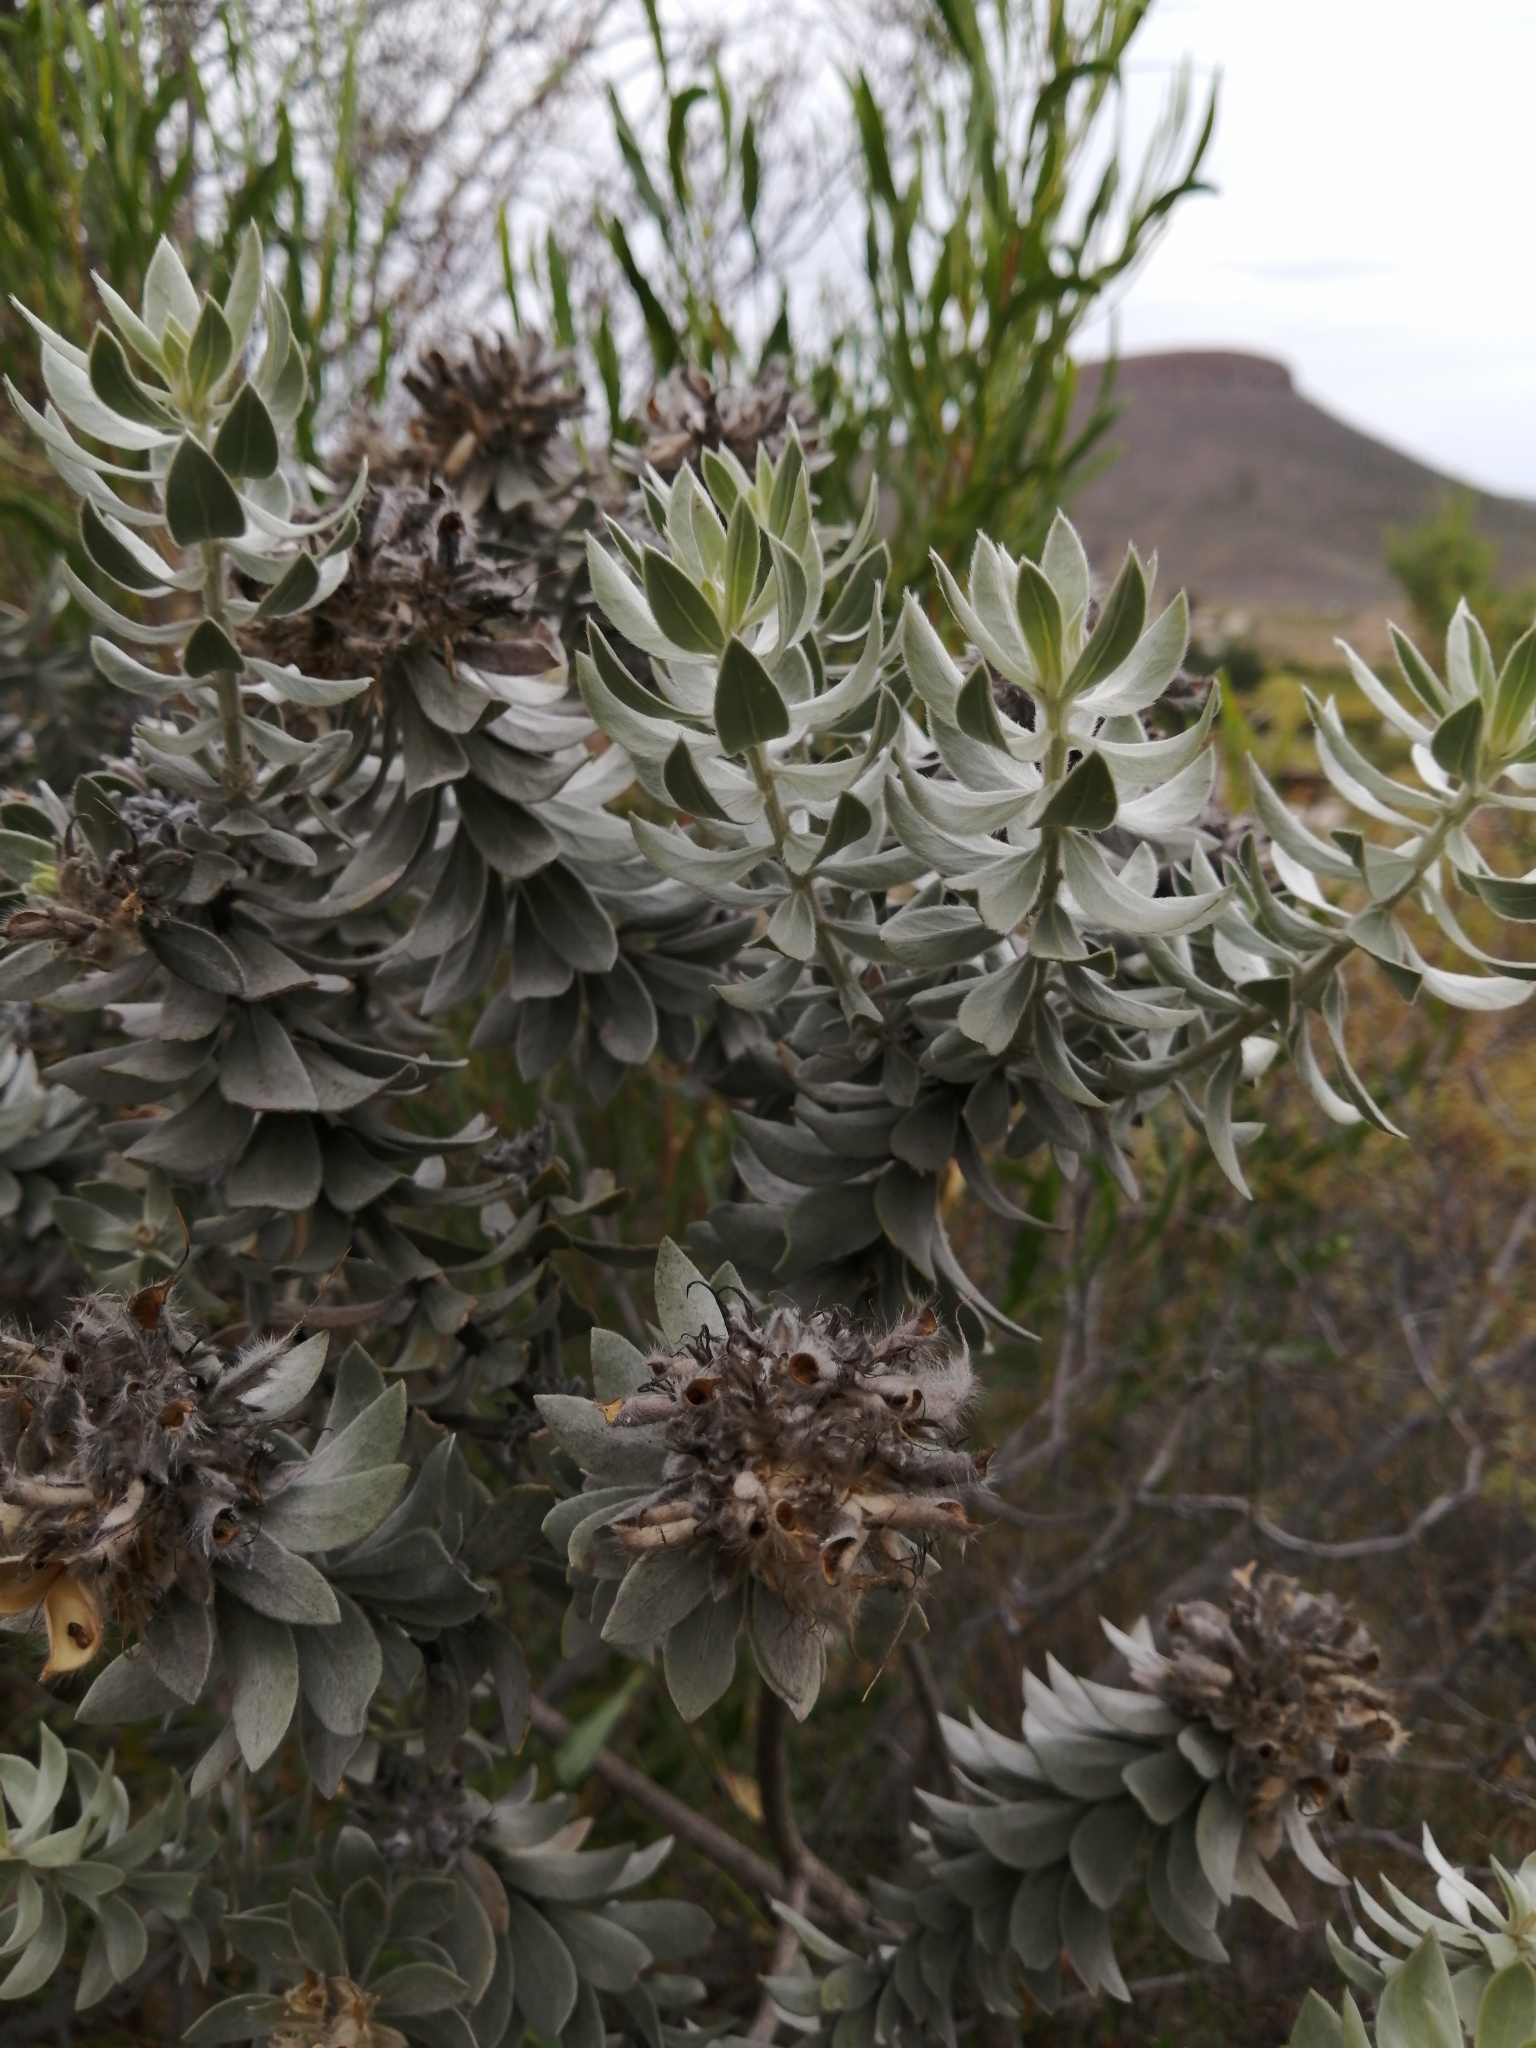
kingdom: Plantae
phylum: Tracheophyta
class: Magnoliopsida
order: Fabales
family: Fabaceae
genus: Xiphotheca
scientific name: Xiphotheca fruticosa
